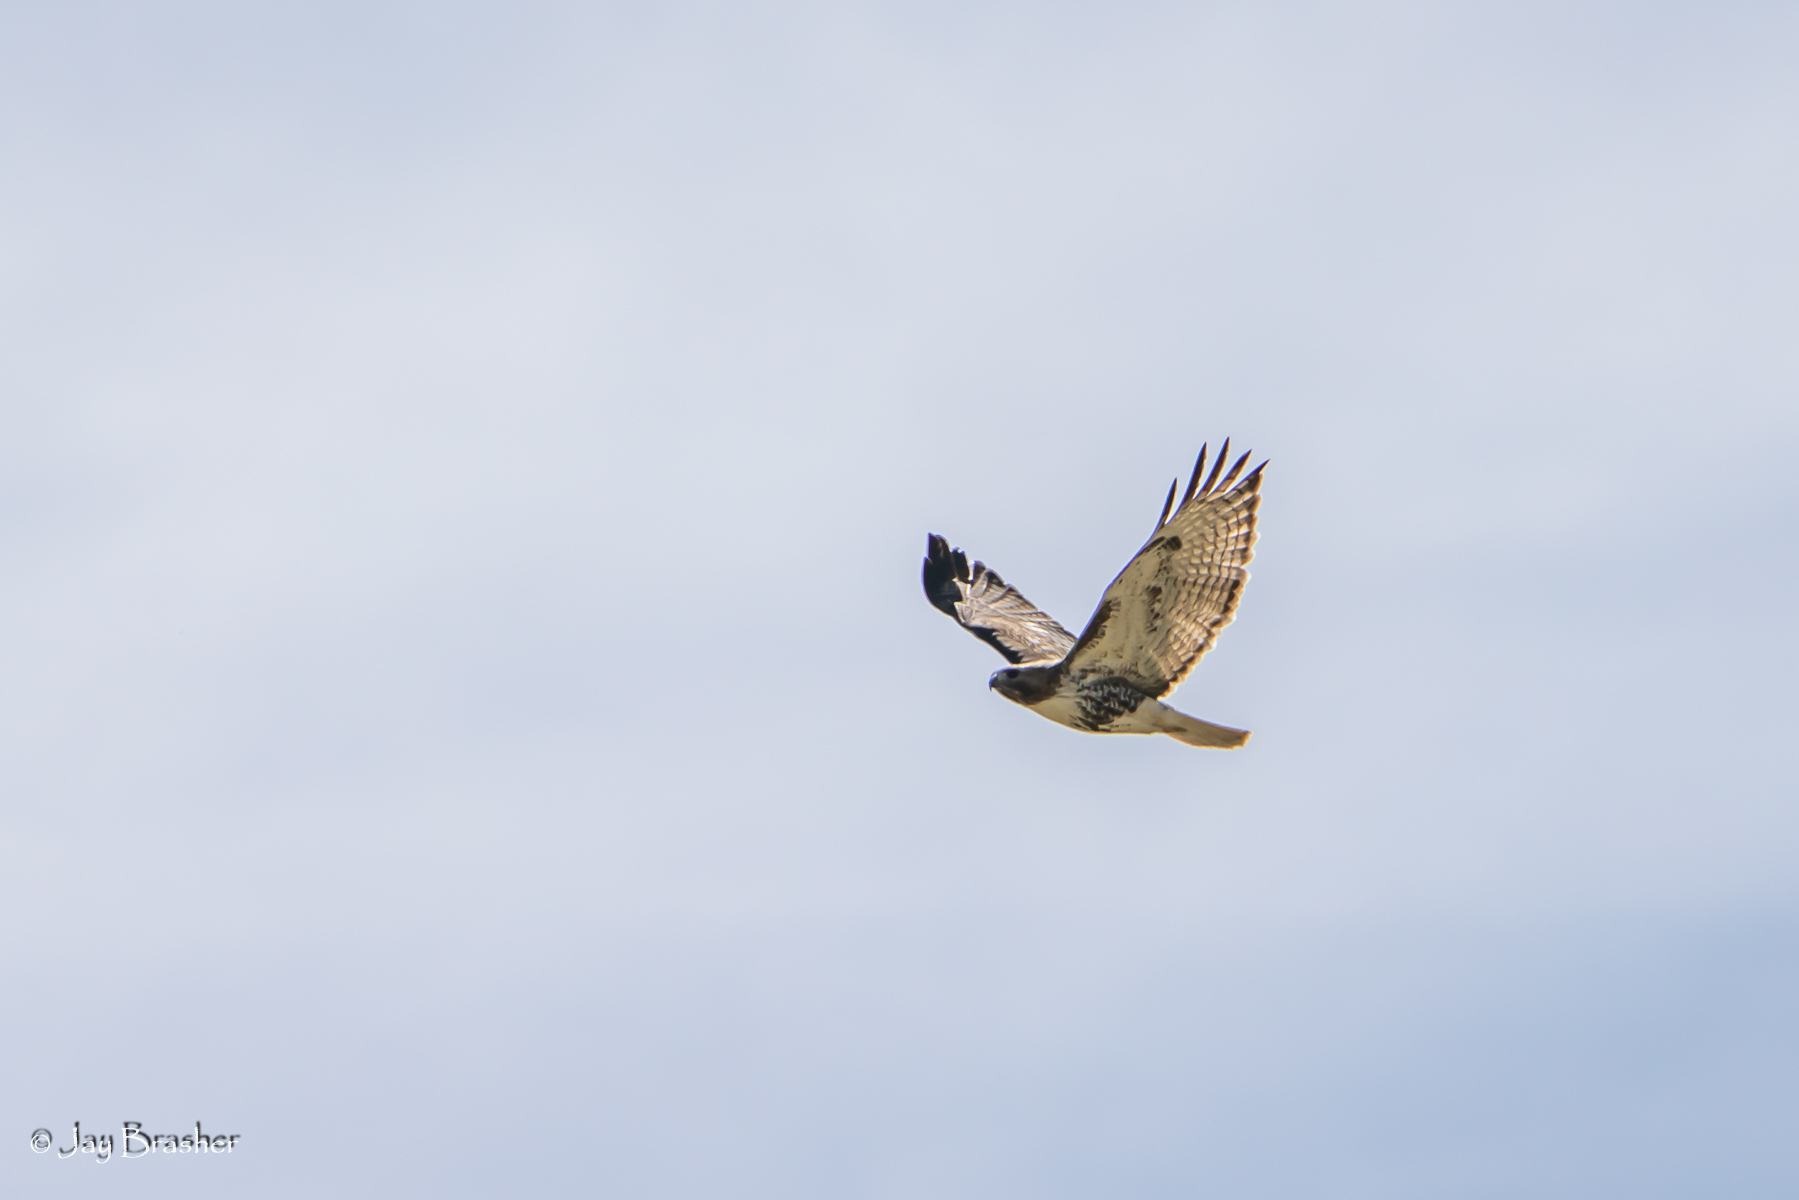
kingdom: Animalia
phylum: Chordata
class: Aves
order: Accipitriformes
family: Accipitridae
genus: Buteo
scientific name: Buteo jamaicensis
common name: Red-tailed hawk
